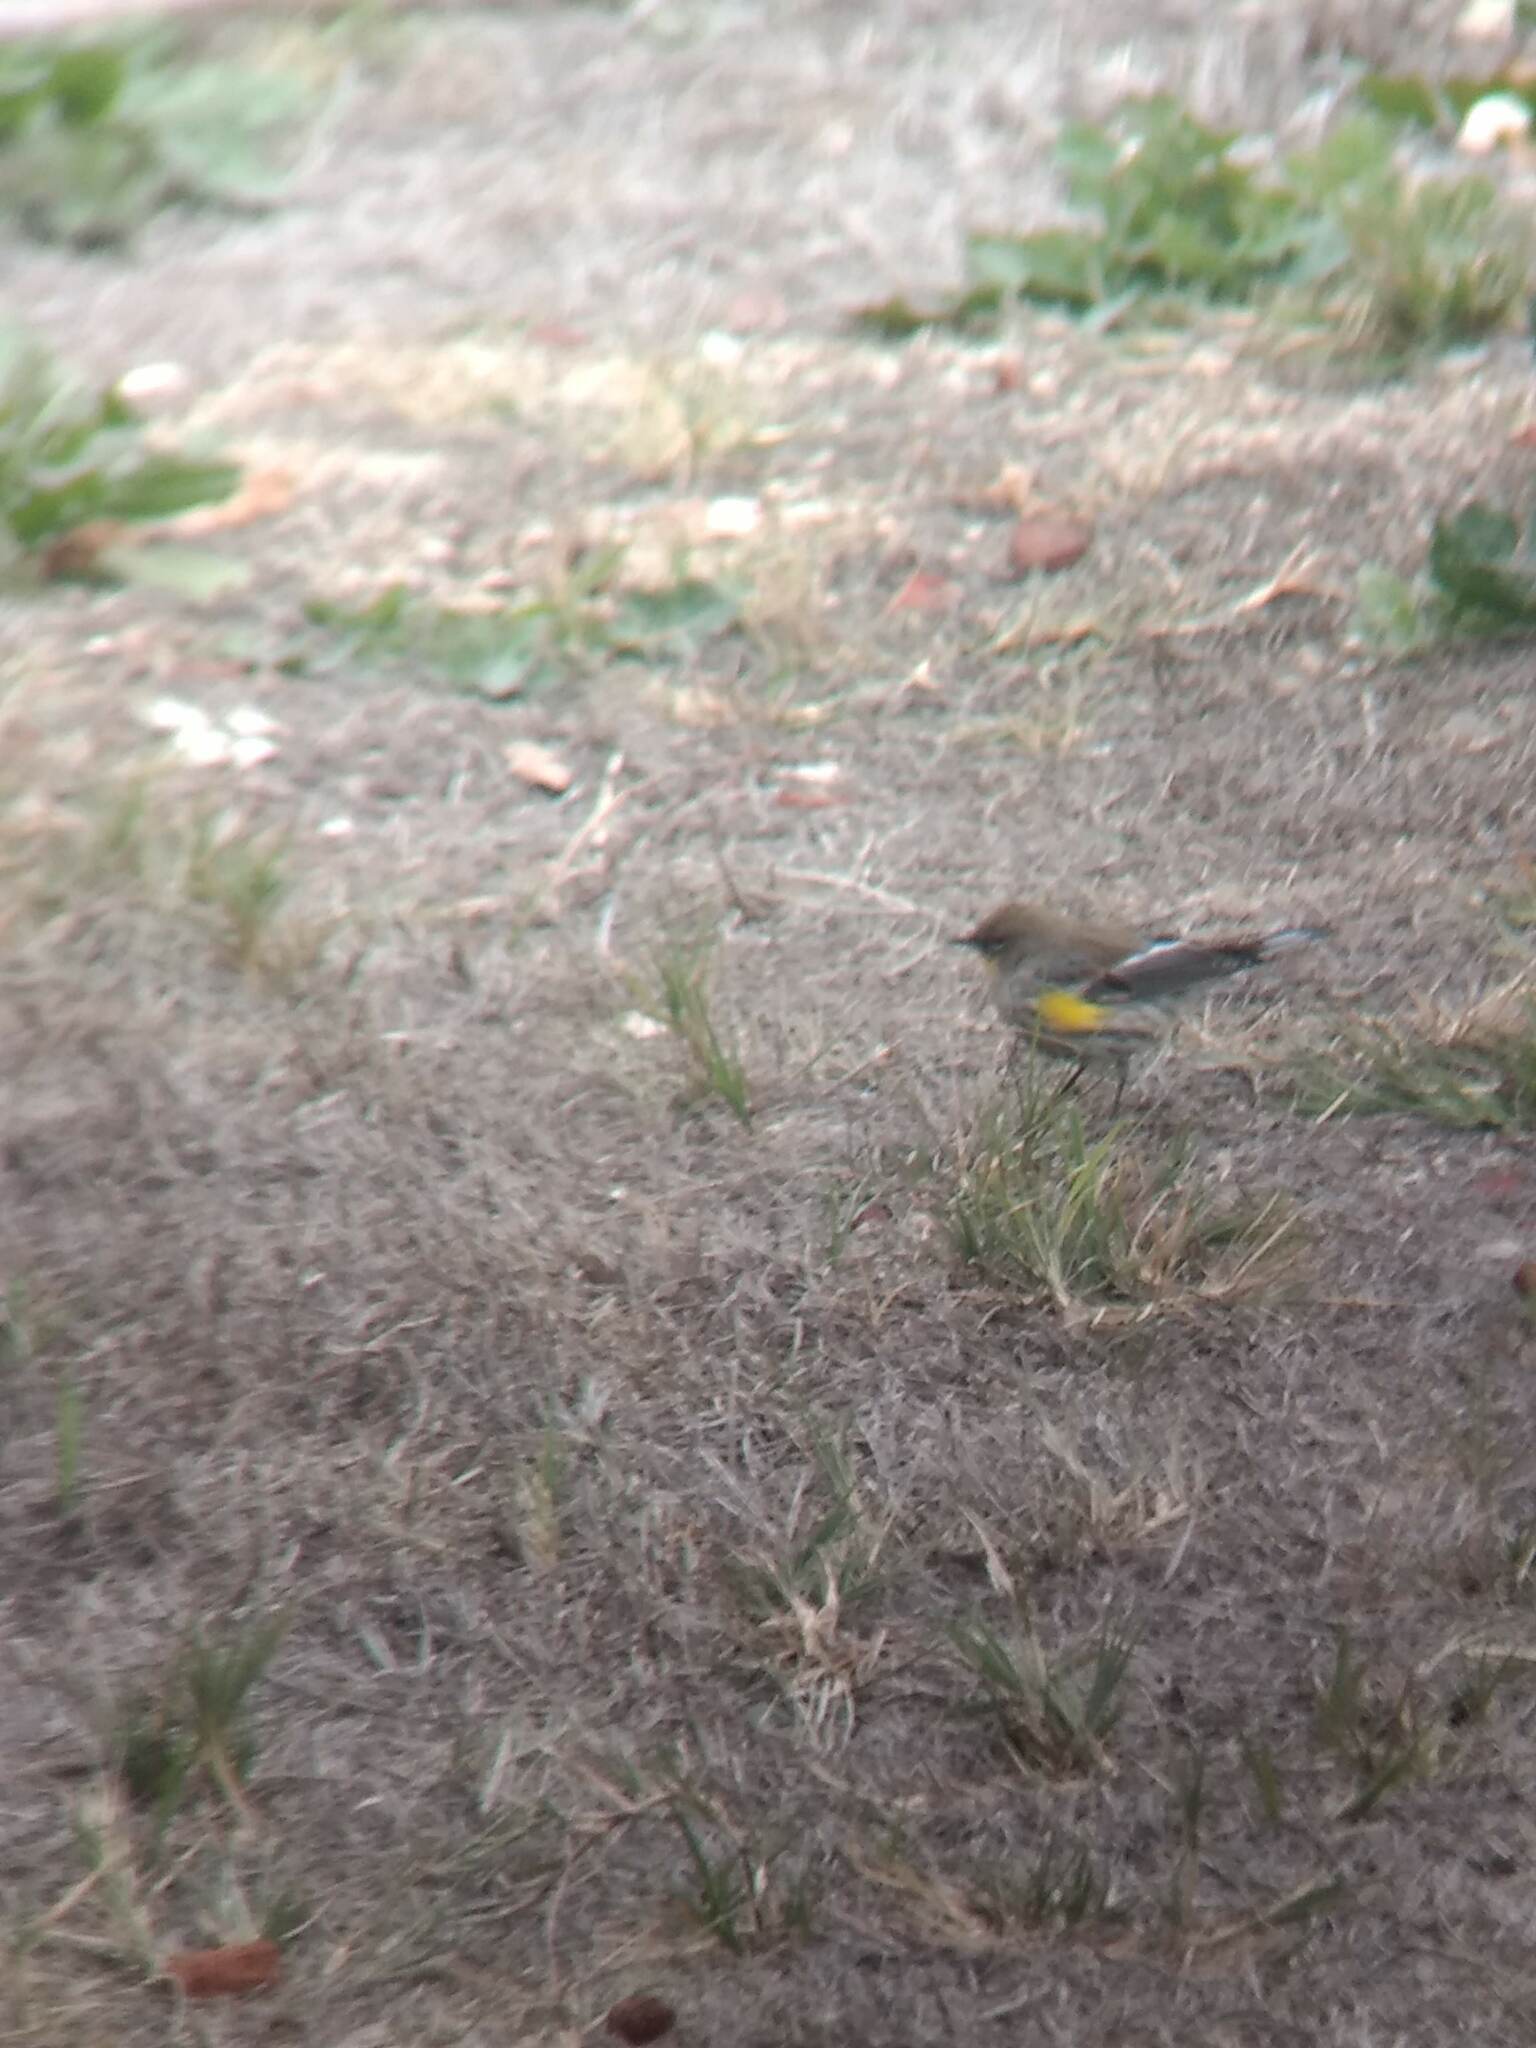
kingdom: Animalia
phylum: Chordata
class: Aves
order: Passeriformes
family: Parulidae
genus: Setophaga
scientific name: Setophaga coronata
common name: Myrtle warbler
